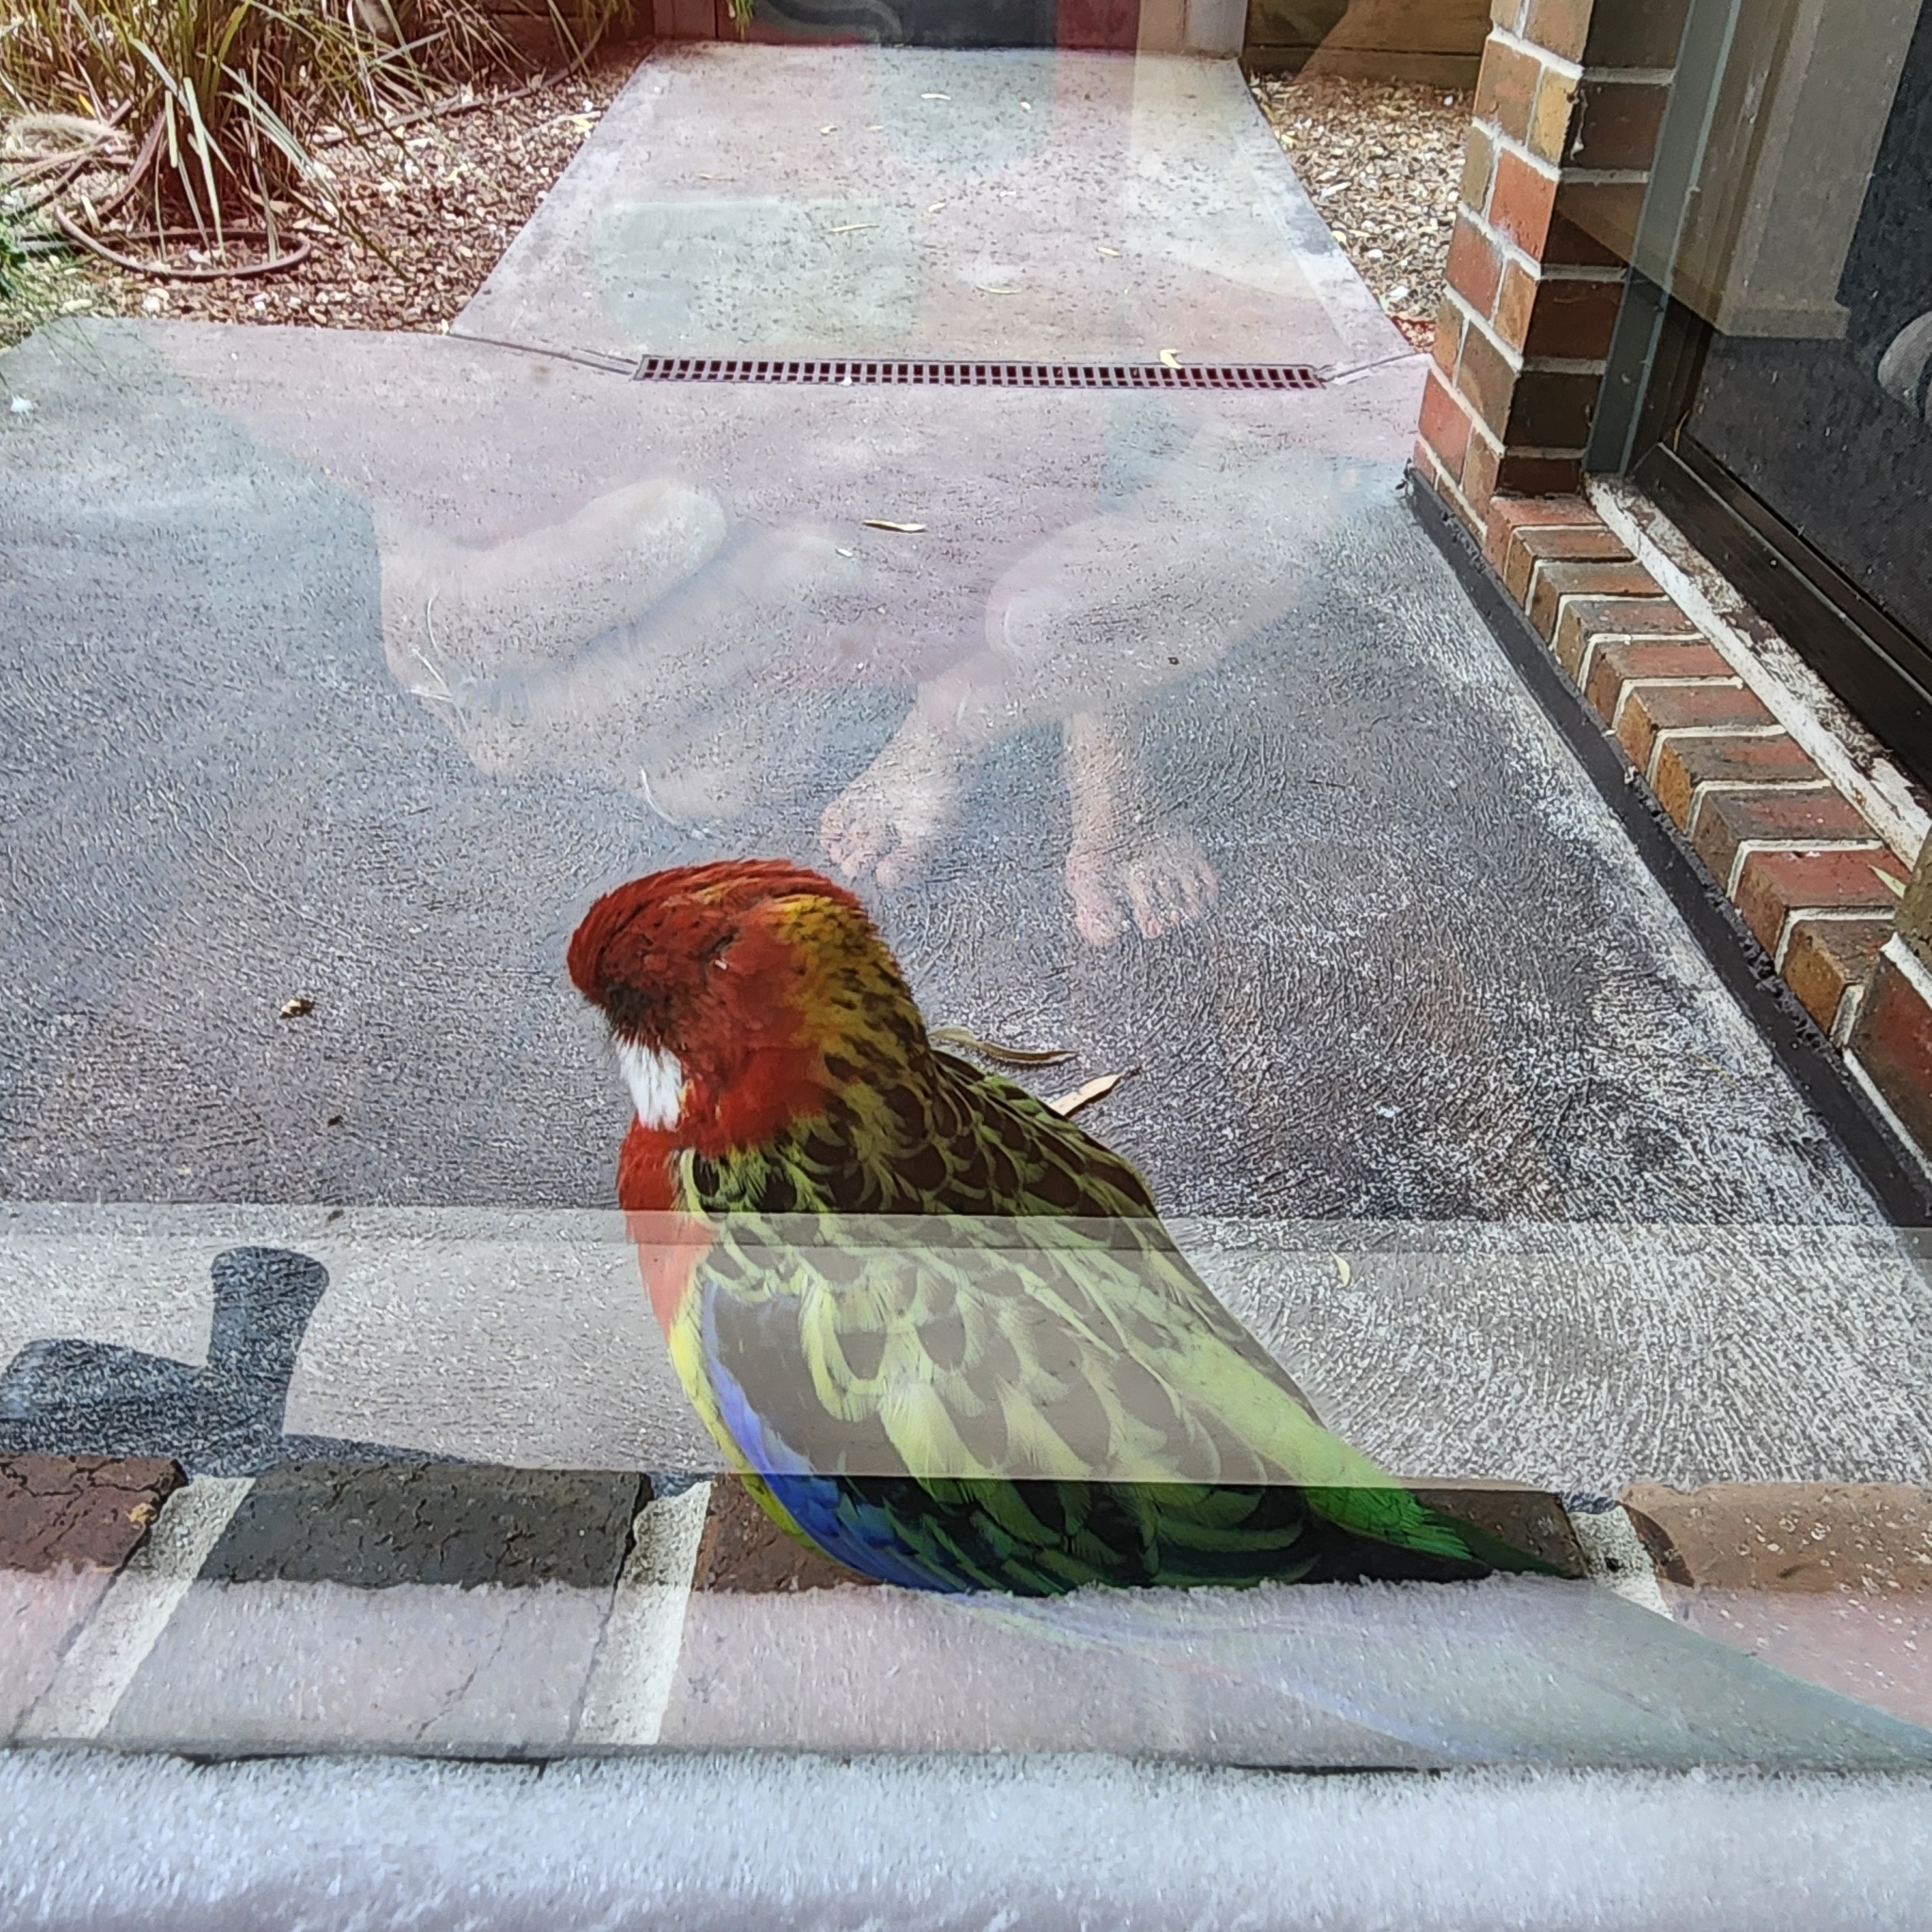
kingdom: Animalia
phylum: Chordata
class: Aves
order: Psittaciformes
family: Psittacidae
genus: Platycercus
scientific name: Platycercus eximius
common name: Eastern rosella
